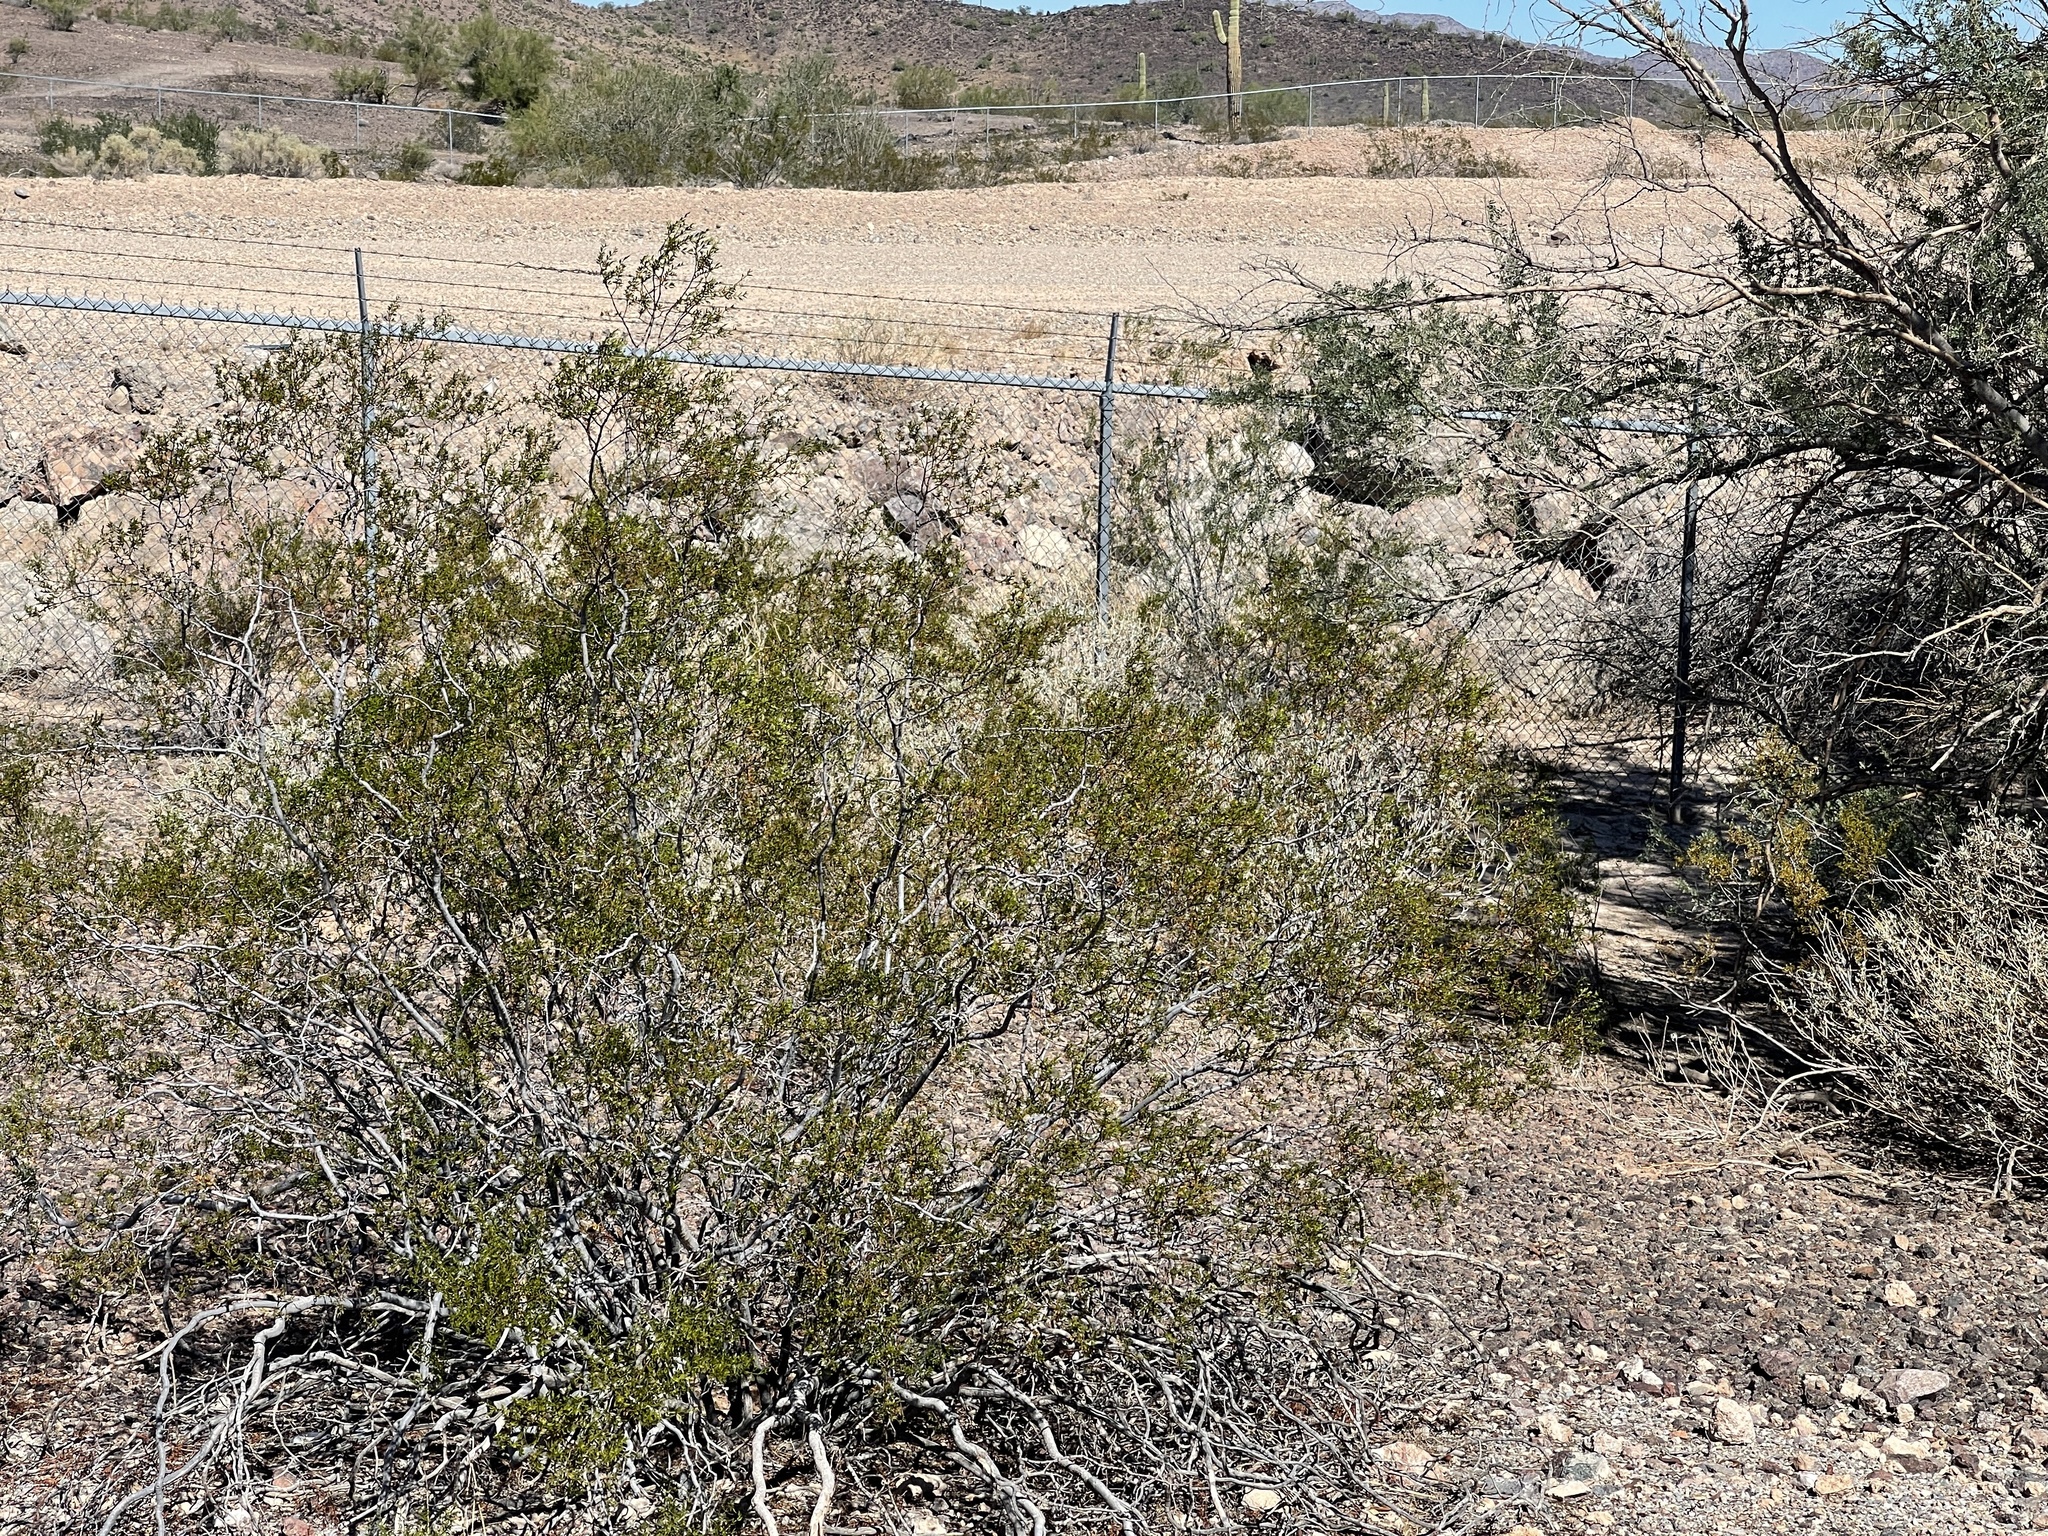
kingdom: Plantae
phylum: Tracheophyta
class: Magnoliopsida
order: Zygophyllales
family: Zygophyllaceae
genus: Larrea
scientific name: Larrea tridentata
